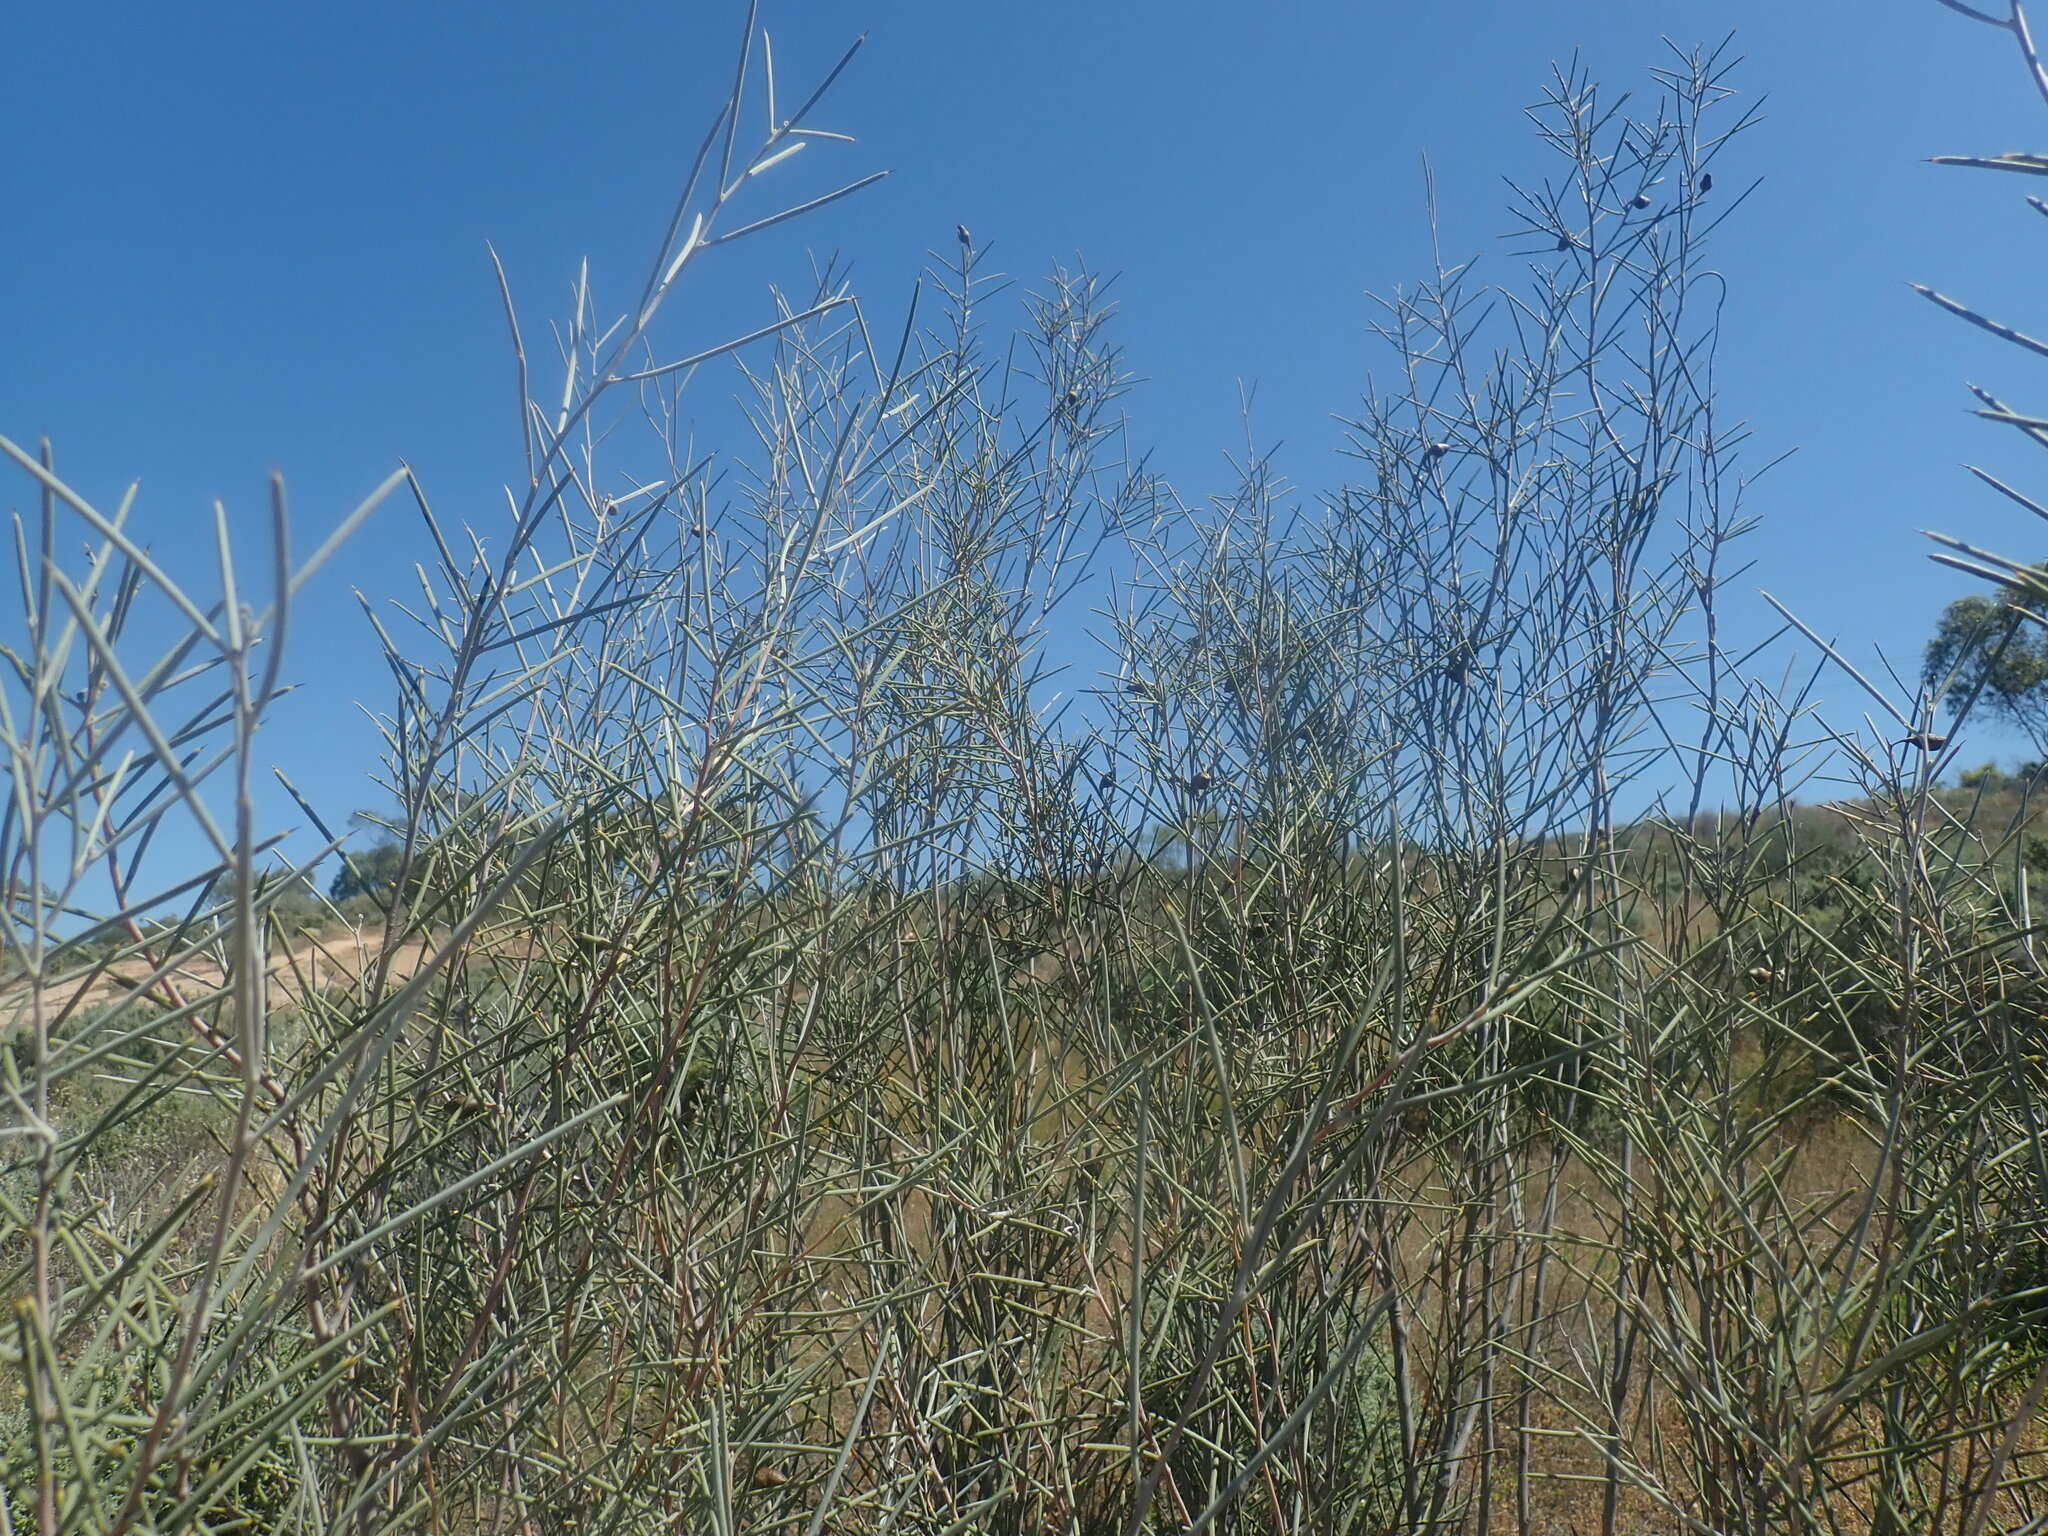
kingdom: Plantae
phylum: Tracheophyta
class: Liliopsida
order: Asparagales
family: Asparagaceae
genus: Asparagus
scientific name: Asparagus officinalis
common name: Garden asparagus
